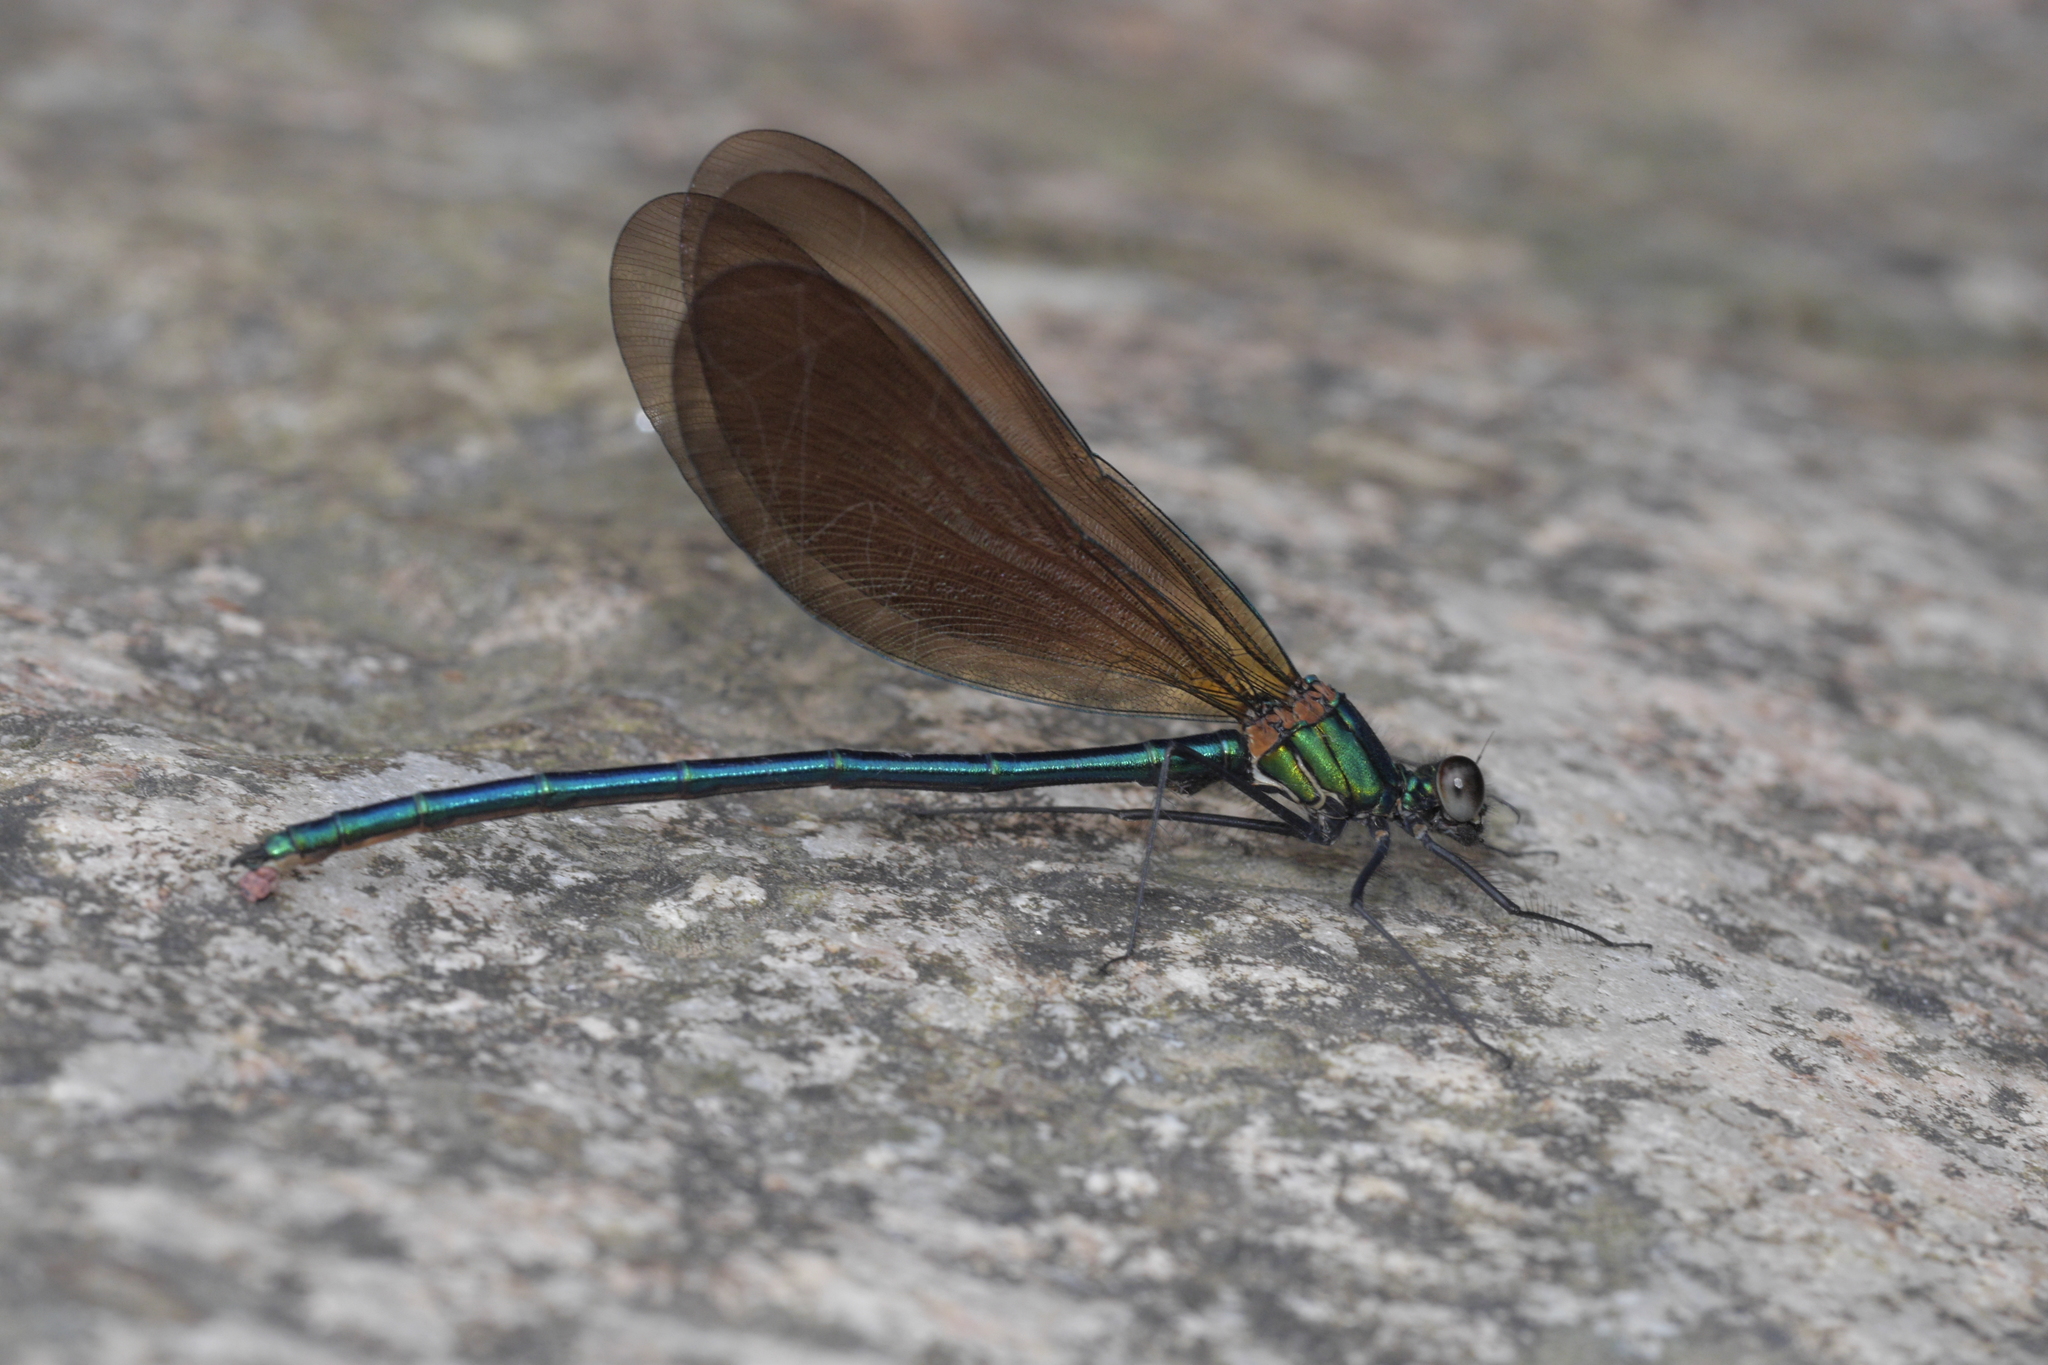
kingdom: Animalia
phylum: Arthropoda
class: Insecta
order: Odonata
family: Calopterygidae
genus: Calopteryx
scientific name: Calopteryx virgo
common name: Beautiful demoiselle
